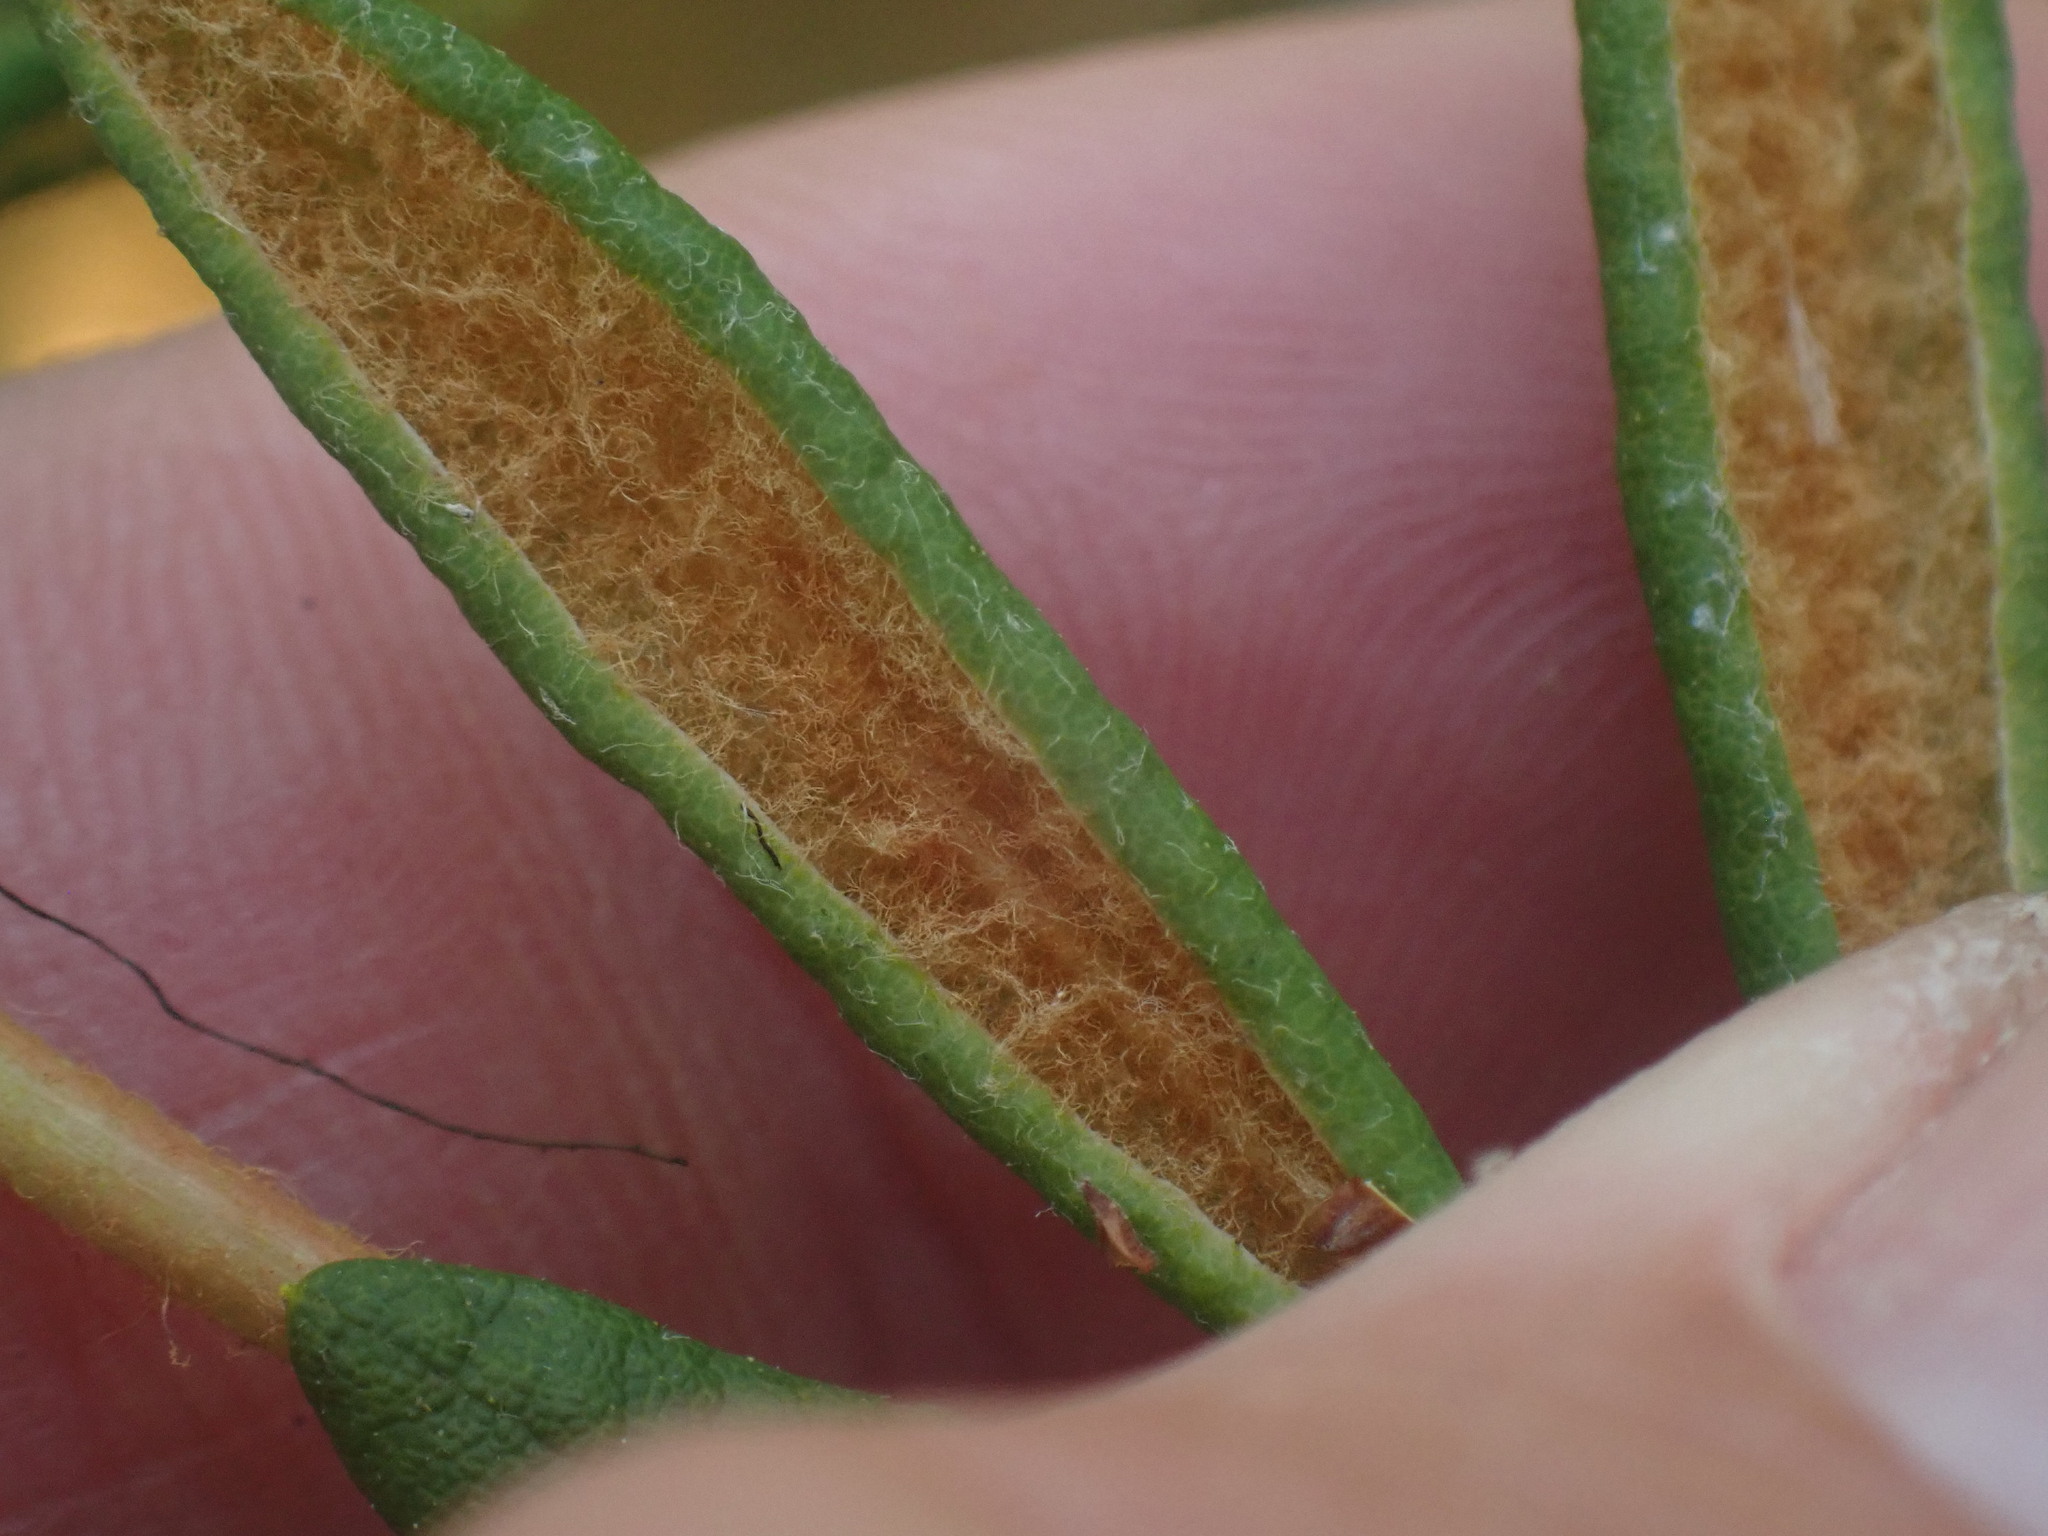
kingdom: Plantae
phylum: Tracheophyta
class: Magnoliopsida
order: Ericales
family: Ericaceae
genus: Rhododendron
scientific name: Rhododendron groenlandicum
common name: Bog labrador tea
